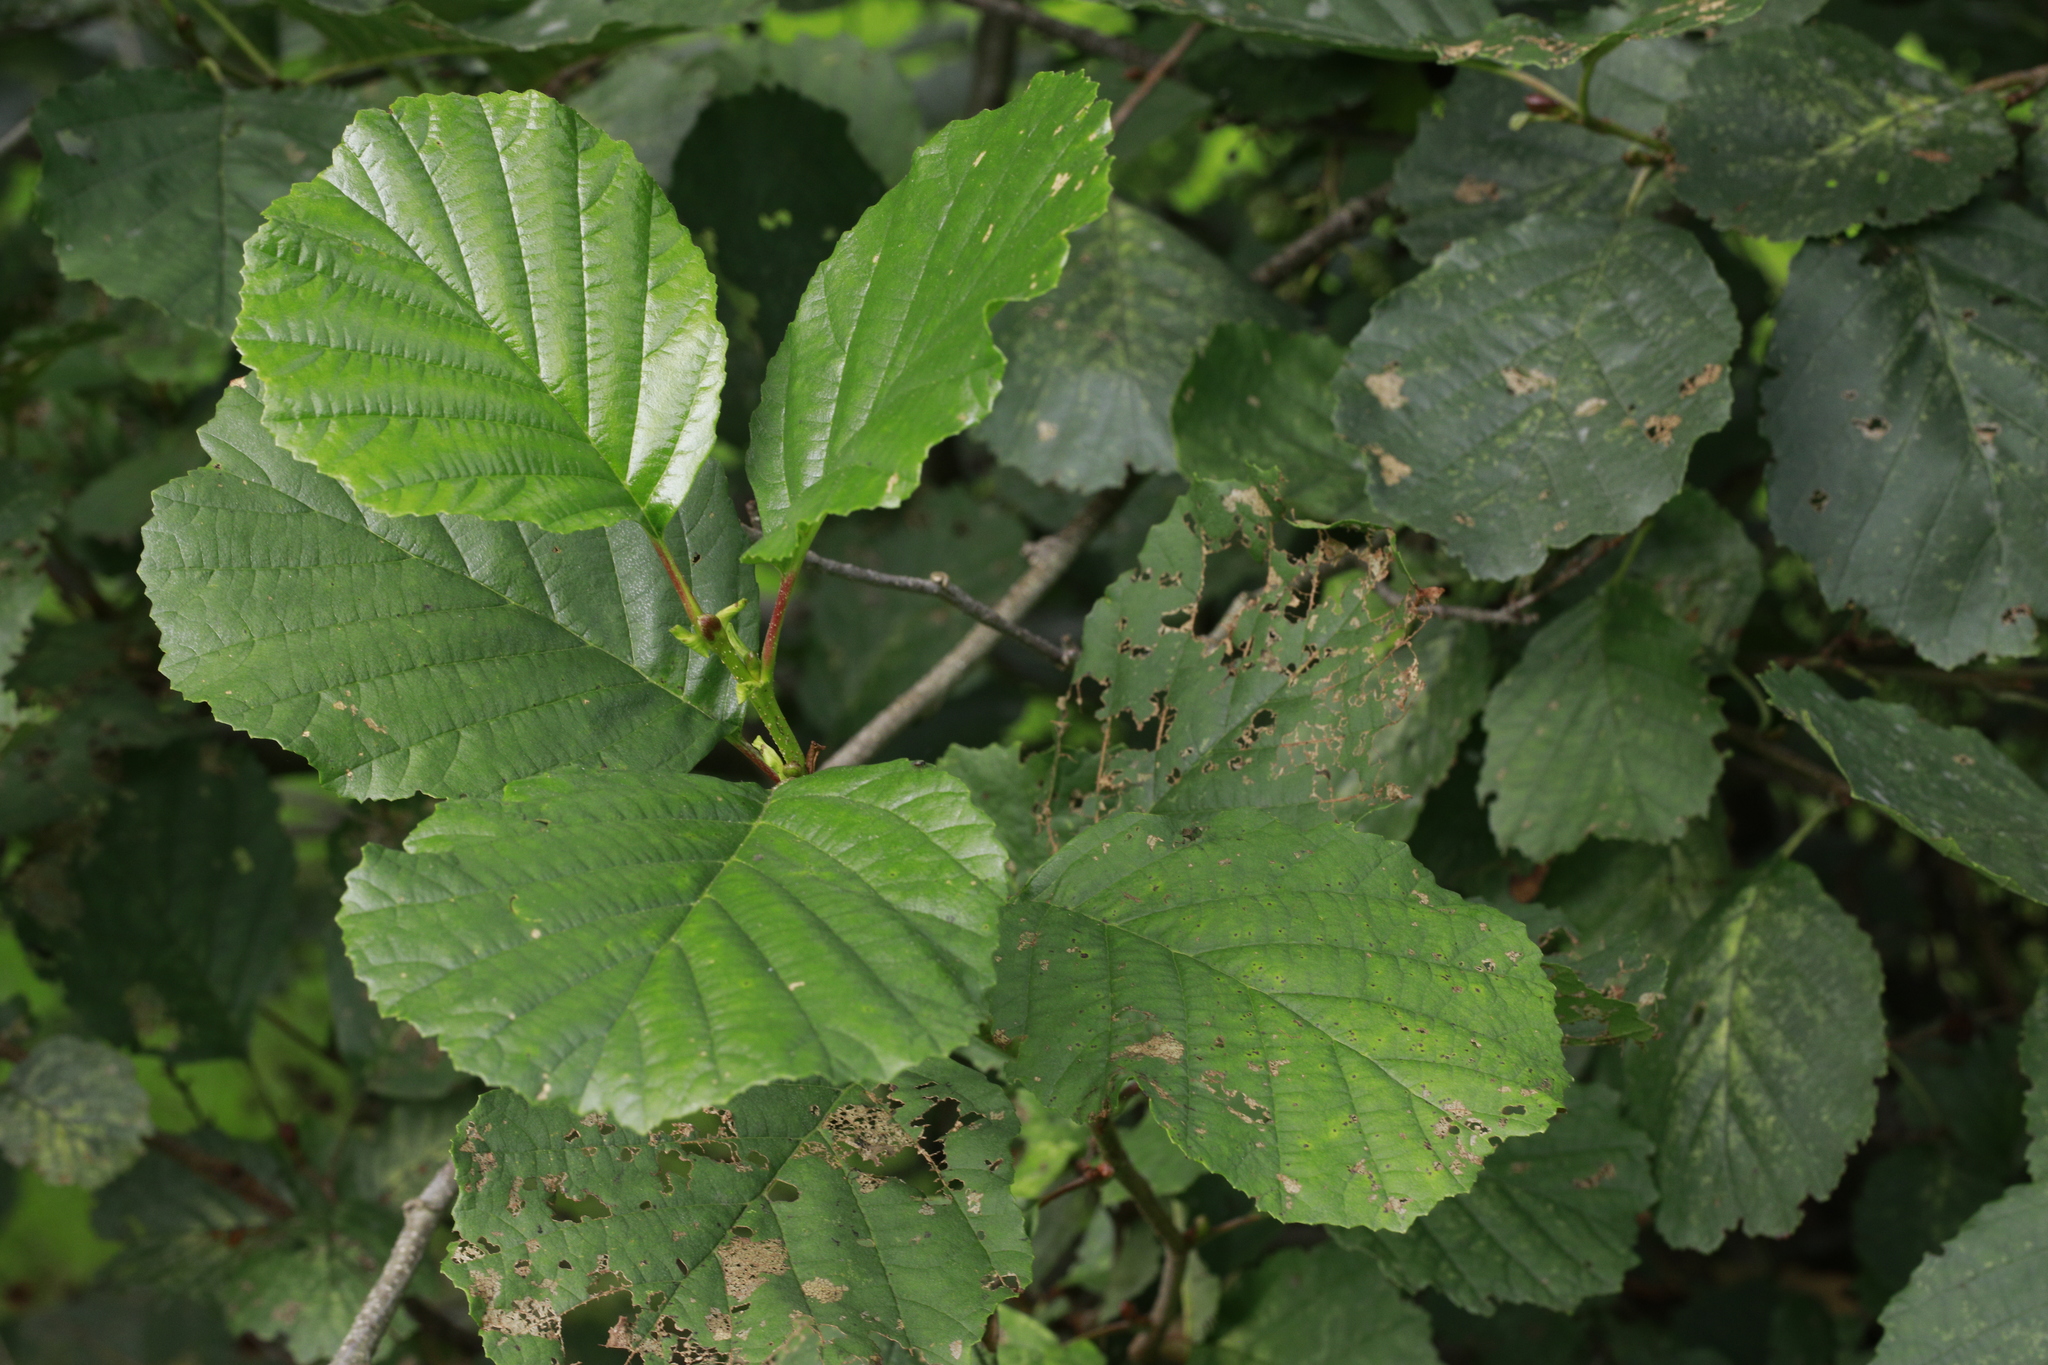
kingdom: Plantae
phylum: Tracheophyta
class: Magnoliopsida
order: Fagales
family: Betulaceae
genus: Alnus
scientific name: Alnus glutinosa
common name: Black alder
